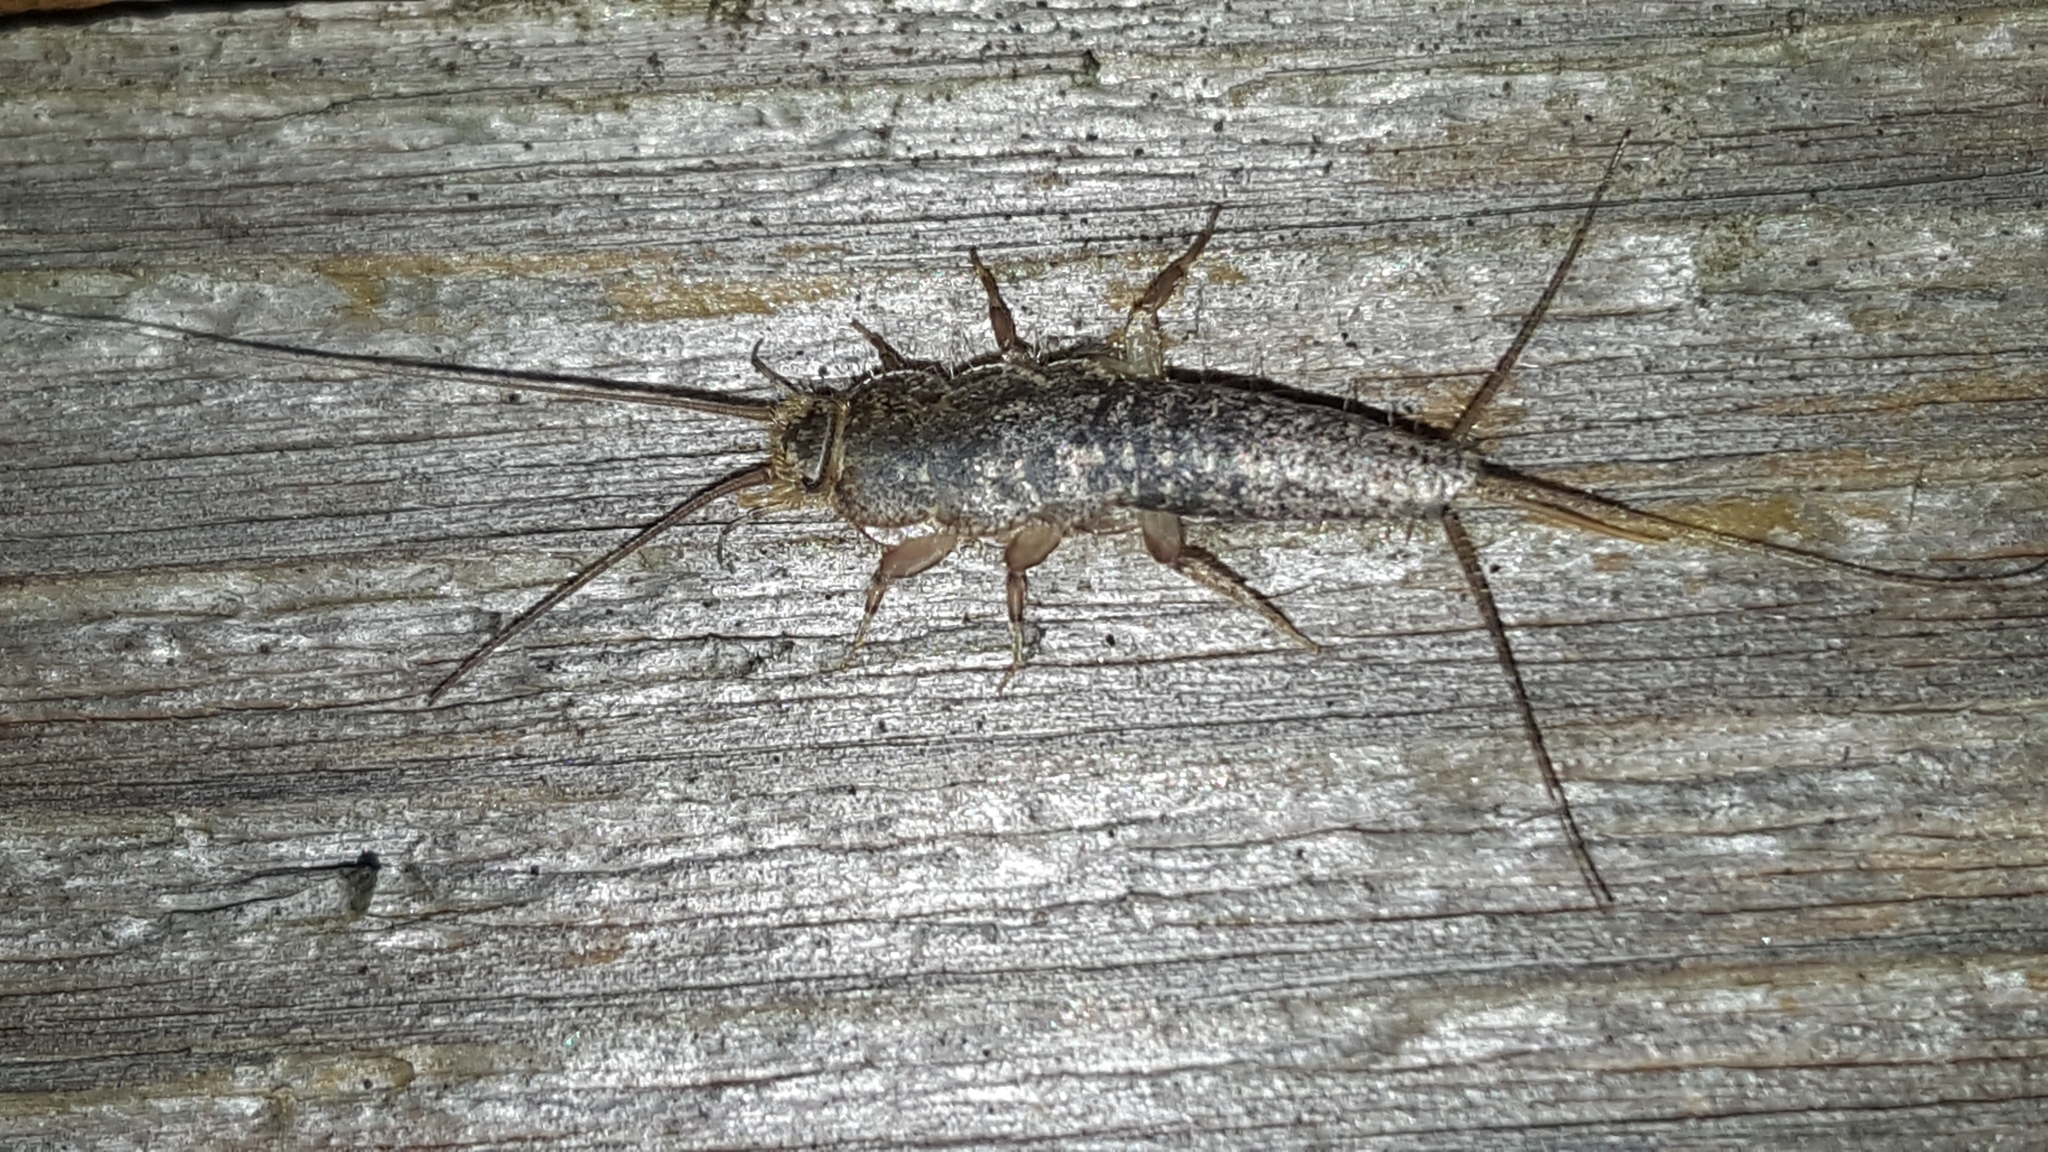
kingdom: Animalia
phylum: Arthropoda
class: Insecta
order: Zygentoma
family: Lepismatidae
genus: Ctenolepisma
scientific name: Ctenolepisma lineata
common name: Four-lined silverfish
